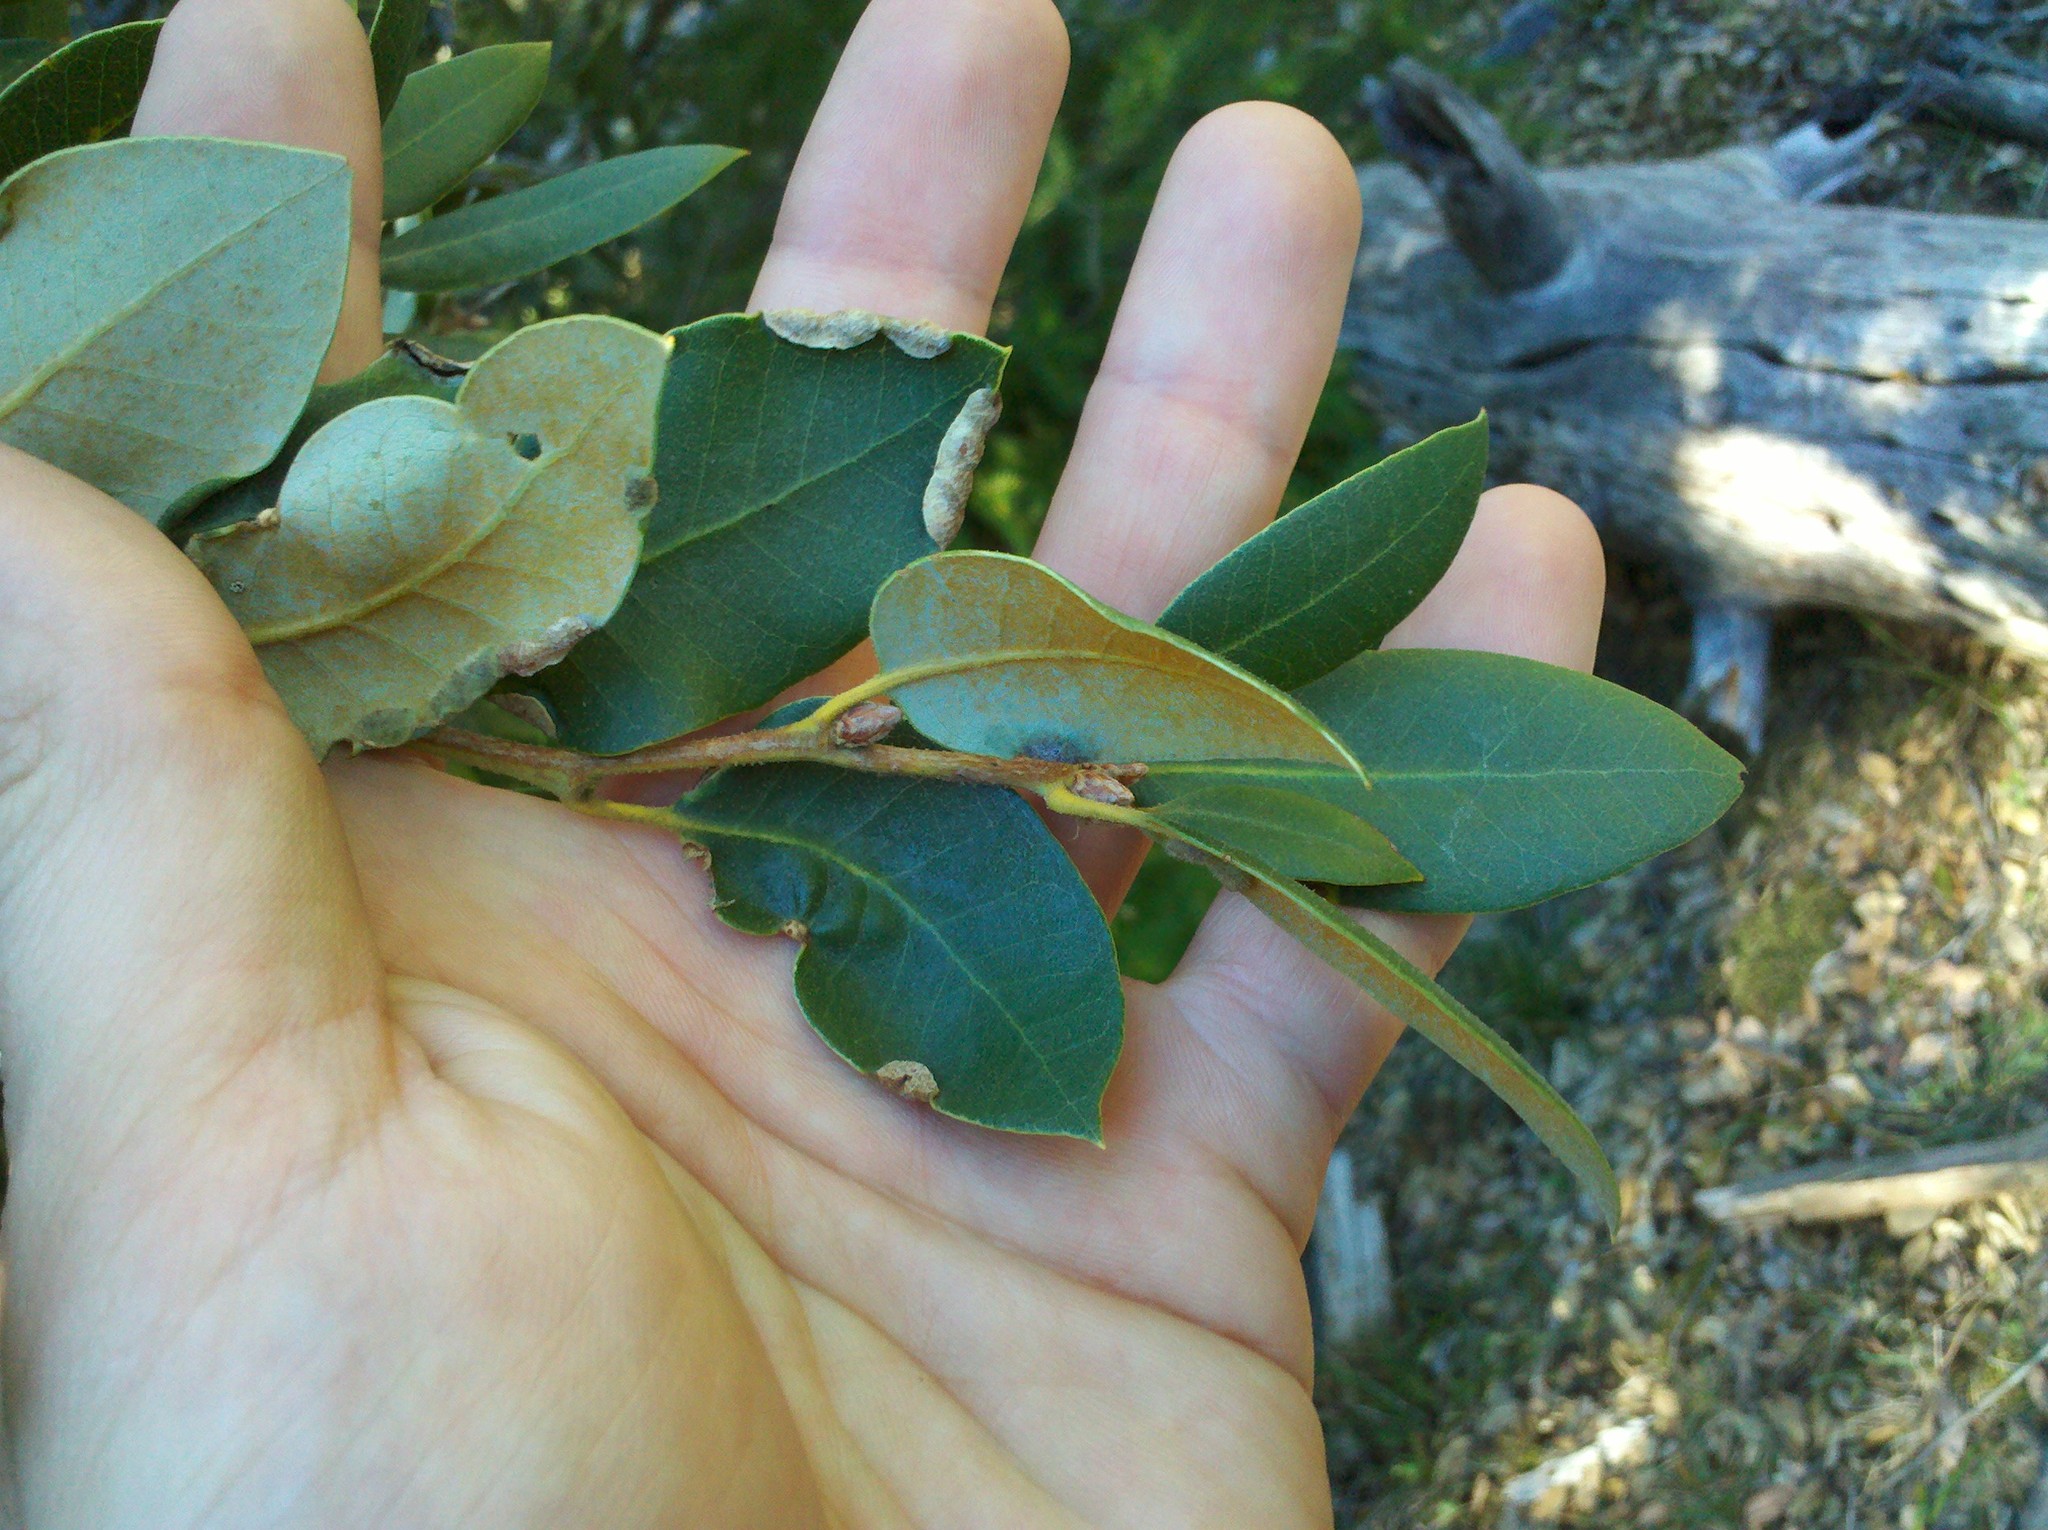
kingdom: Plantae
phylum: Tracheophyta
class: Magnoliopsida
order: Fagales
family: Fagaceae
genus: Quercus
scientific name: Quercus chrysolepis
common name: Canyon live oak
